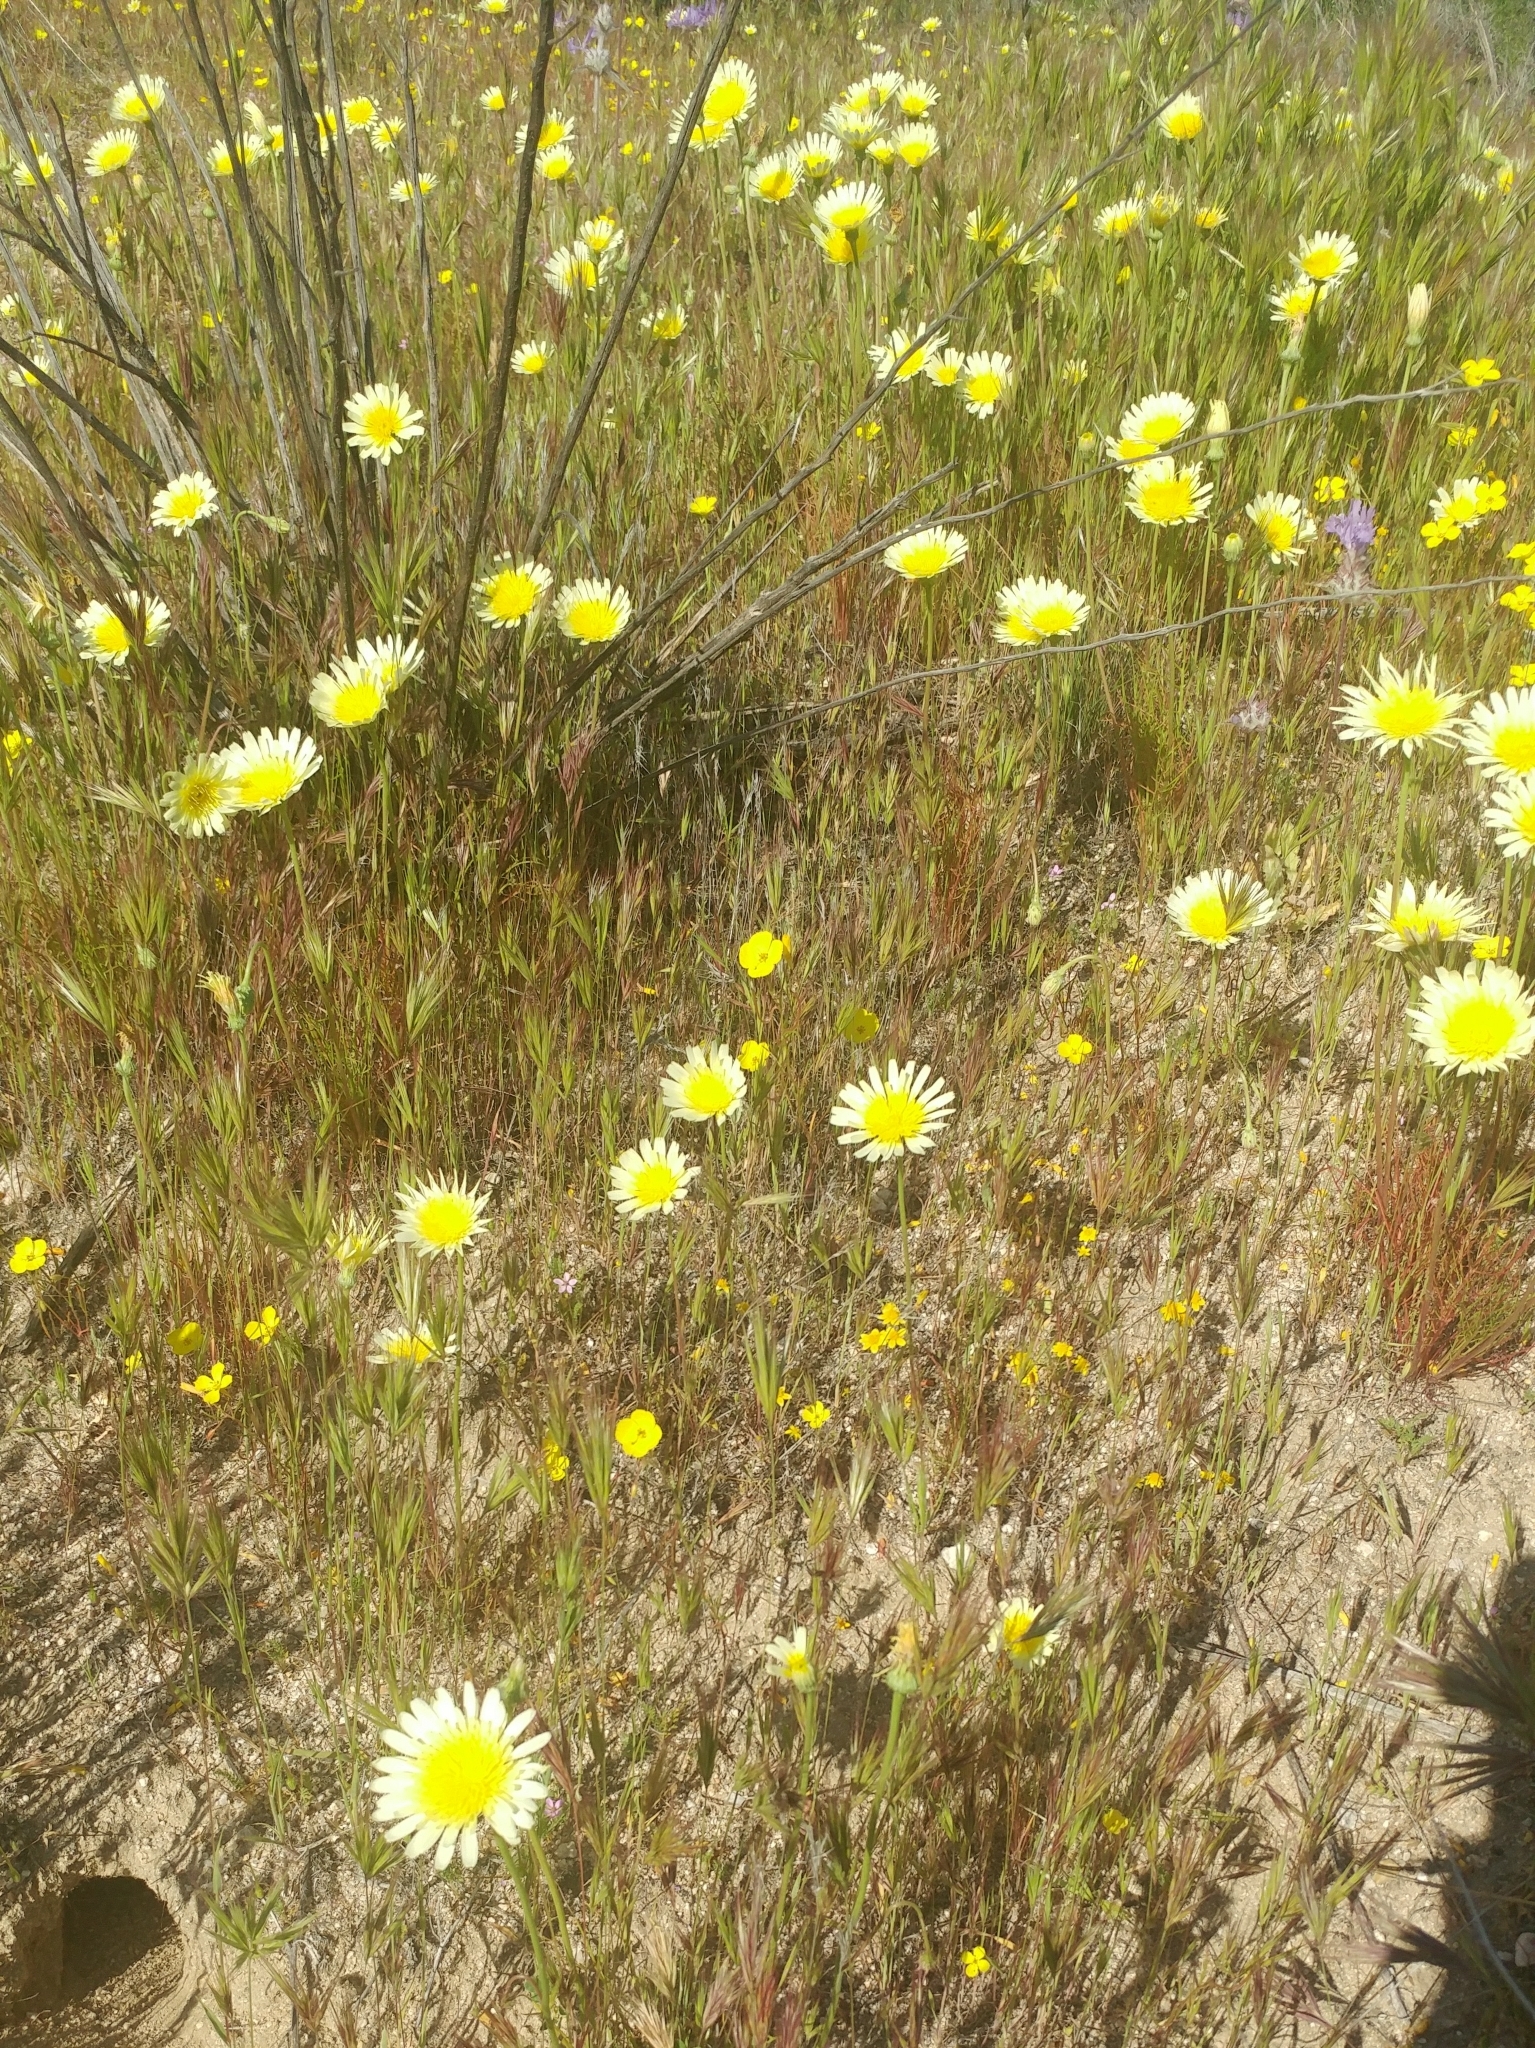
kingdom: Plantae
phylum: Tracheophyta
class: Magnoliopsida
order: Asterales
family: Asteraceae
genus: Malacothrix
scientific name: Malacothrix glabrata
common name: Smooth desert-dandelion
